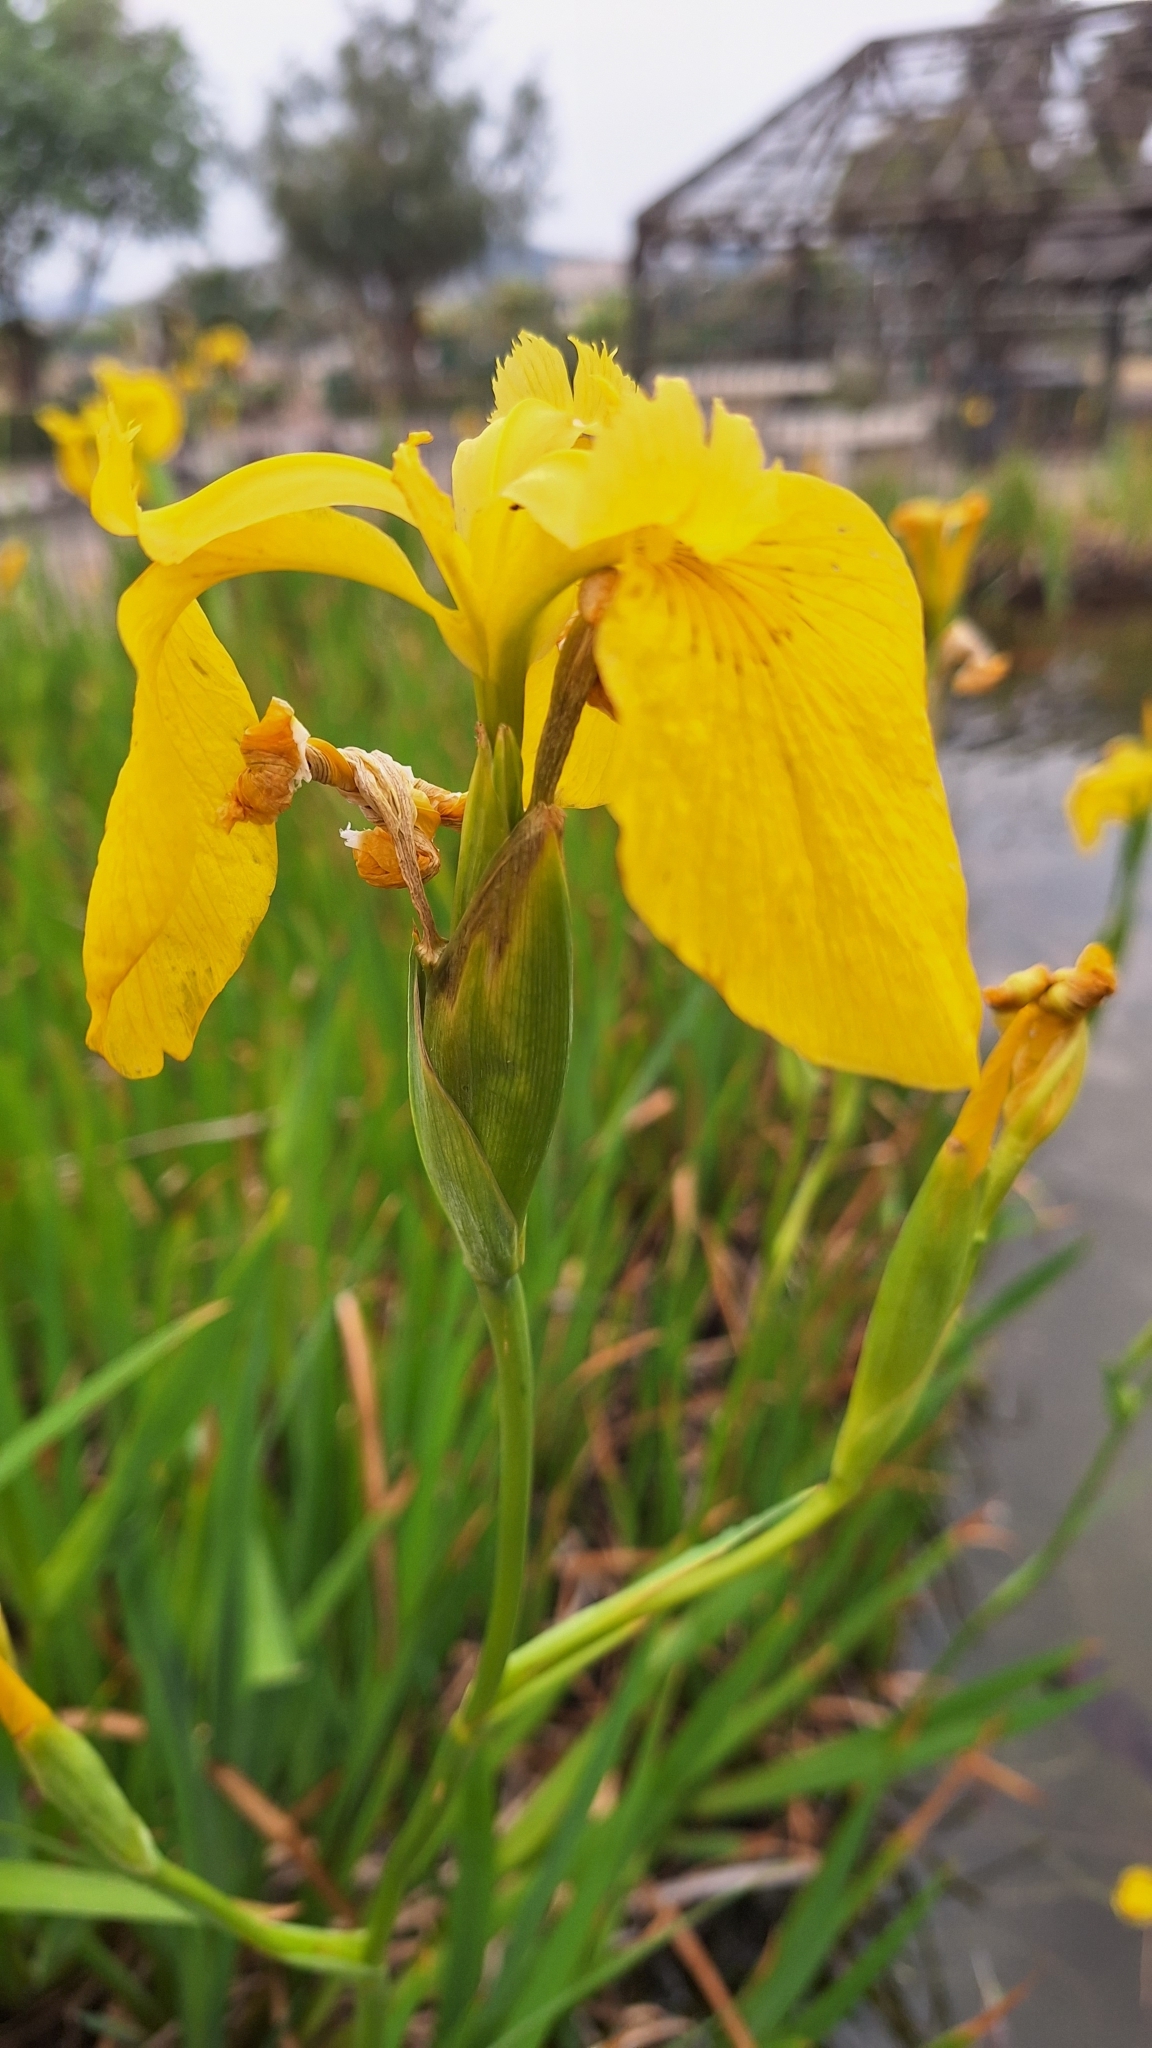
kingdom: Plantae
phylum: Tracheophyta
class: Liliopsida
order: Asparagales
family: Iridaceae
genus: Iris
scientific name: Iris pseudacorus
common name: Yellow flag
